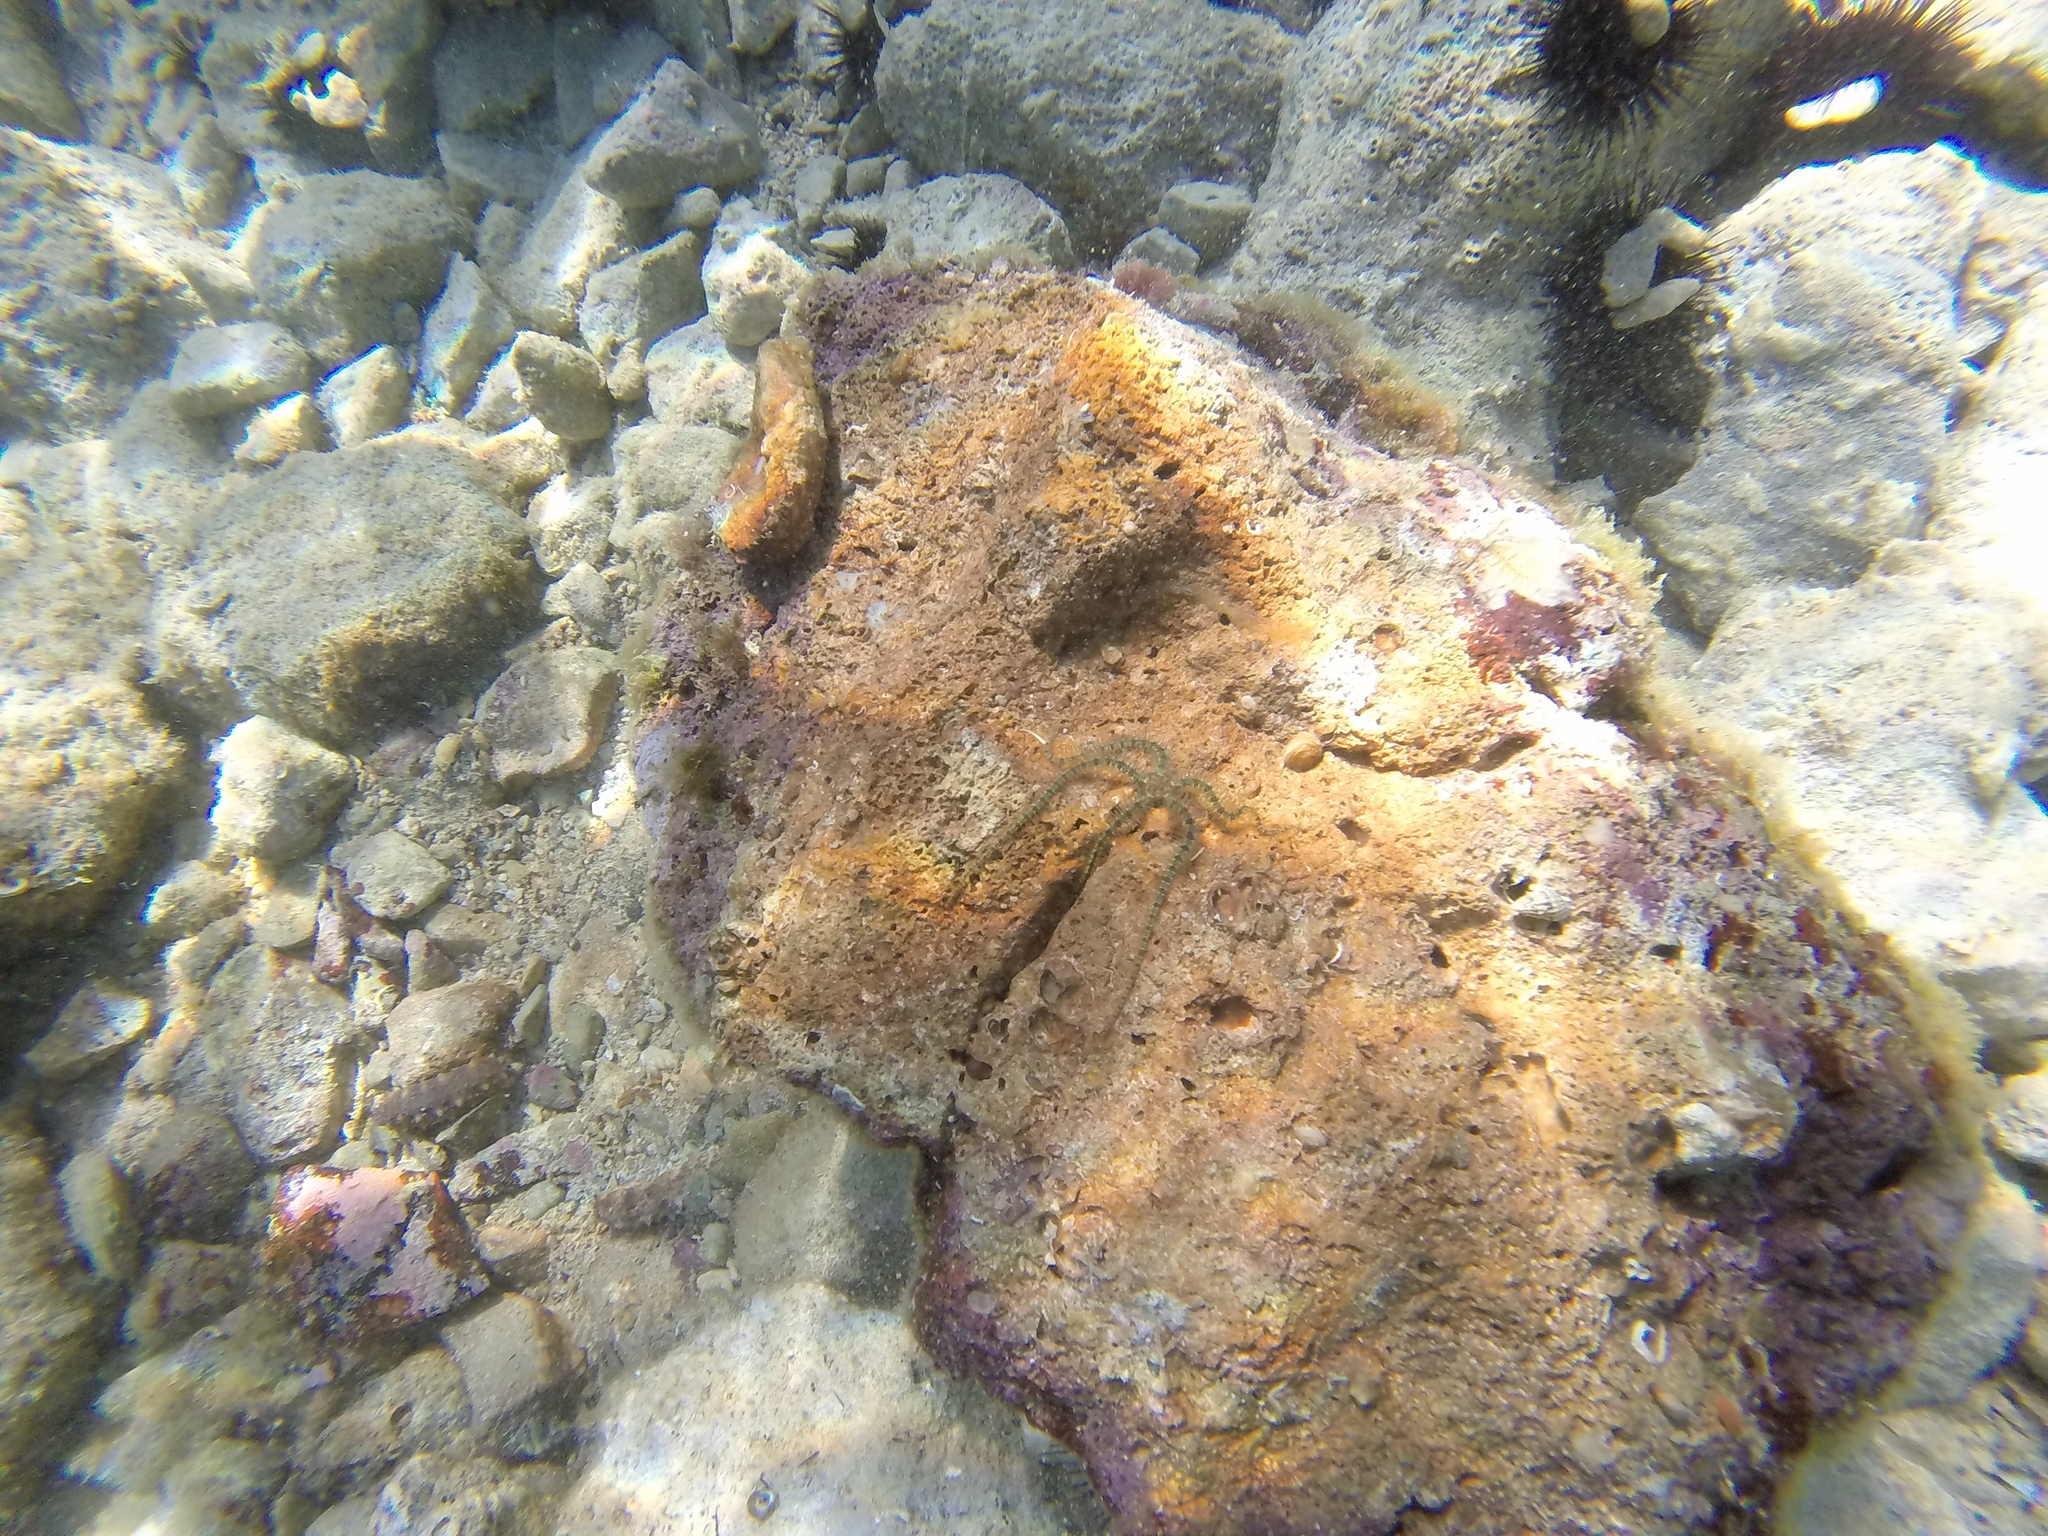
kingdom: Animalia
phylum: Echinodermata
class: Ophiuroidea
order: Amphilepidida
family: Ophiotrichidae
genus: Ophiothrix
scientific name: Ophiothrix fragilis
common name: Common brittlestar
